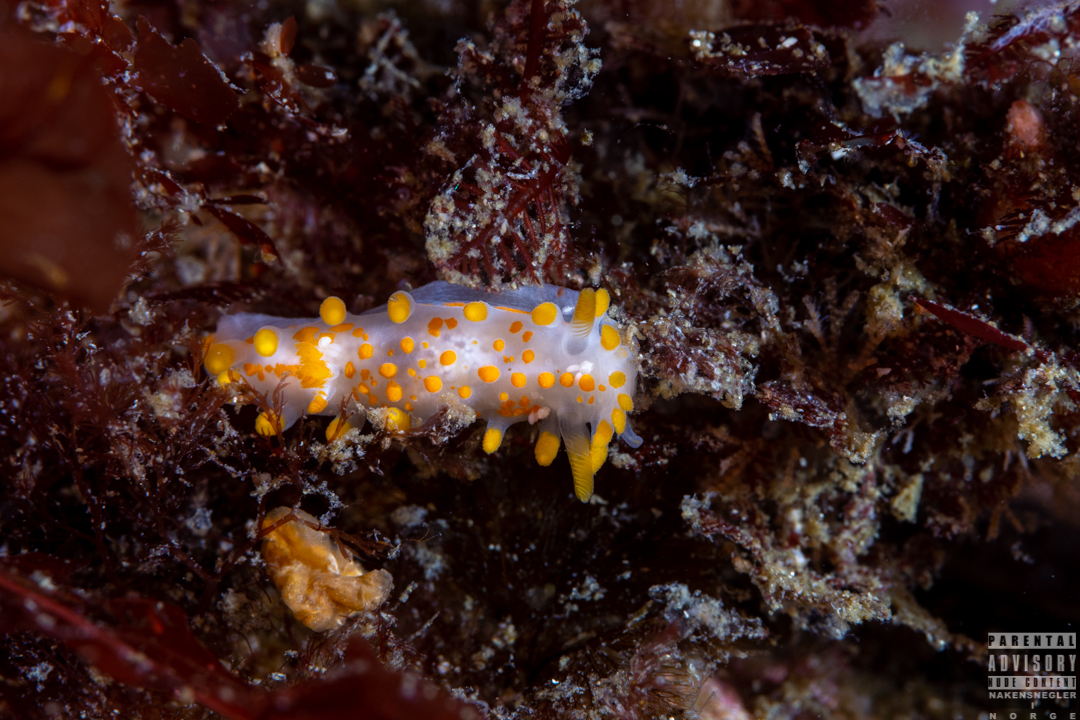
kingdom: Animalia
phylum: Mollusca
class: Gastropoda
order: Nudibranchia
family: Polyceridae
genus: Limacia
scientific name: Limacia clavigera
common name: Orange-clubbed sea slug
